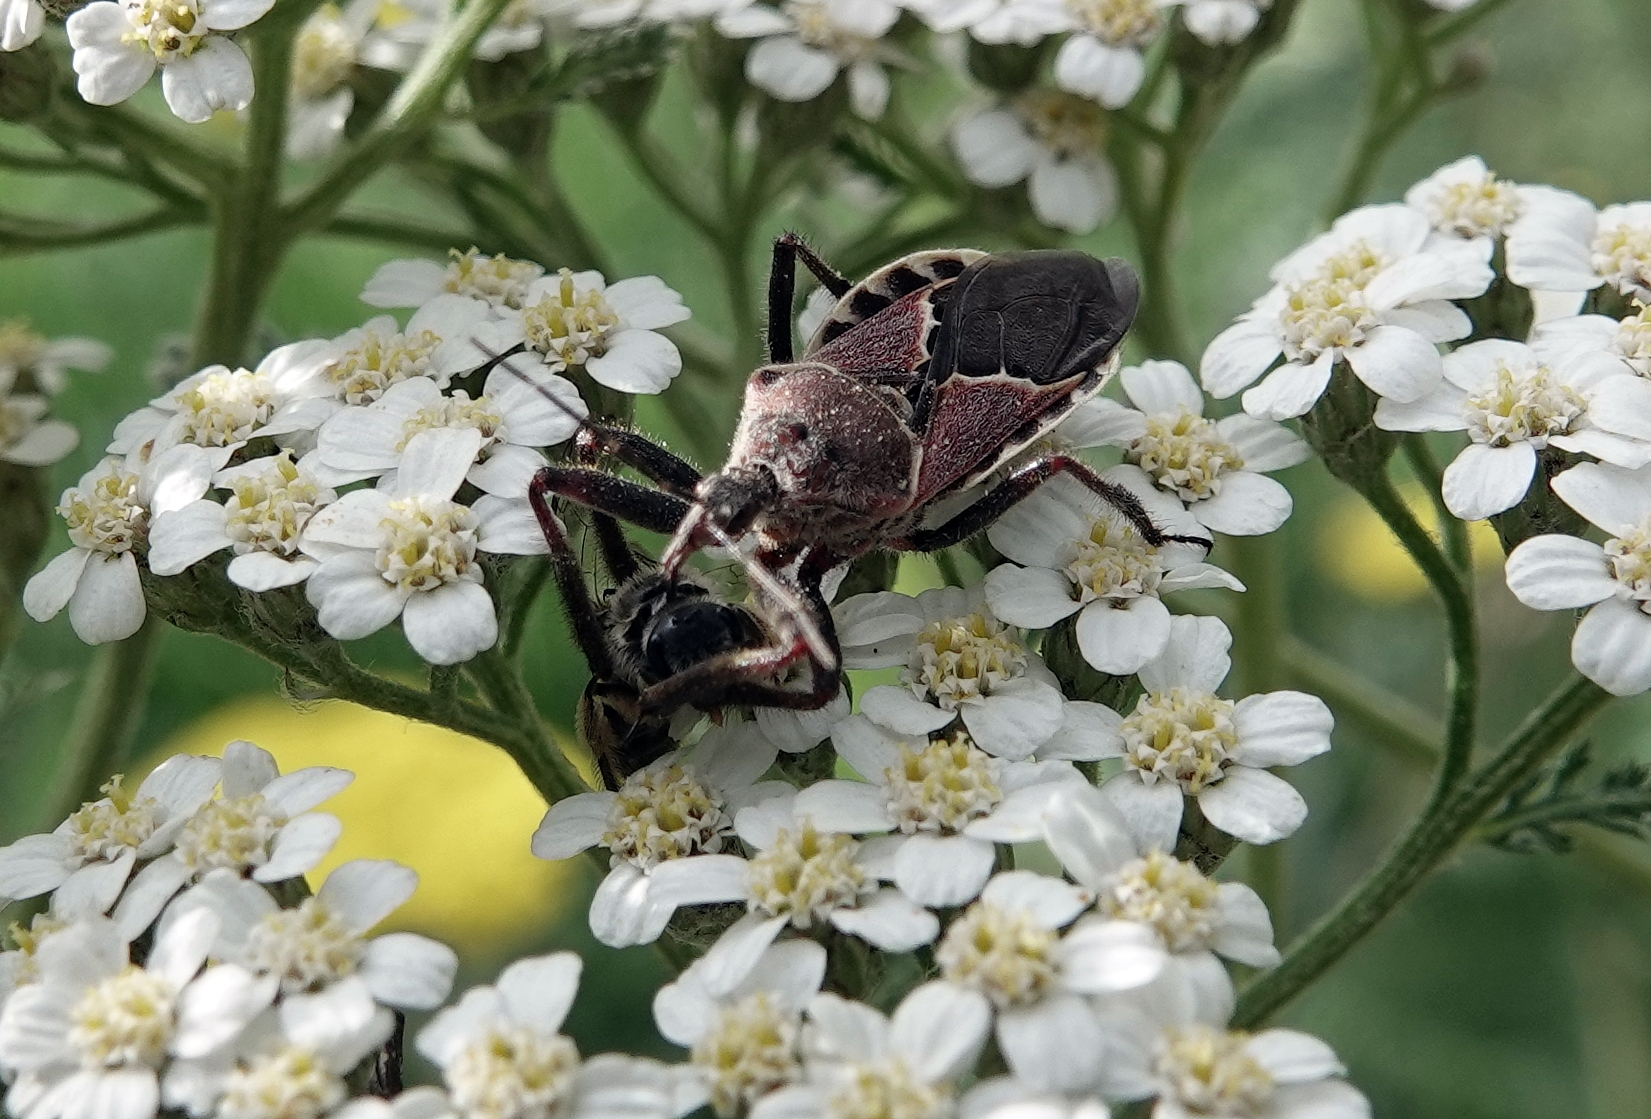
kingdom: Animalia
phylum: Arthropoda
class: Insecta
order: Hemiptera
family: Reduviidae
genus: Apiomerus
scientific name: Apiomerus spissipes
